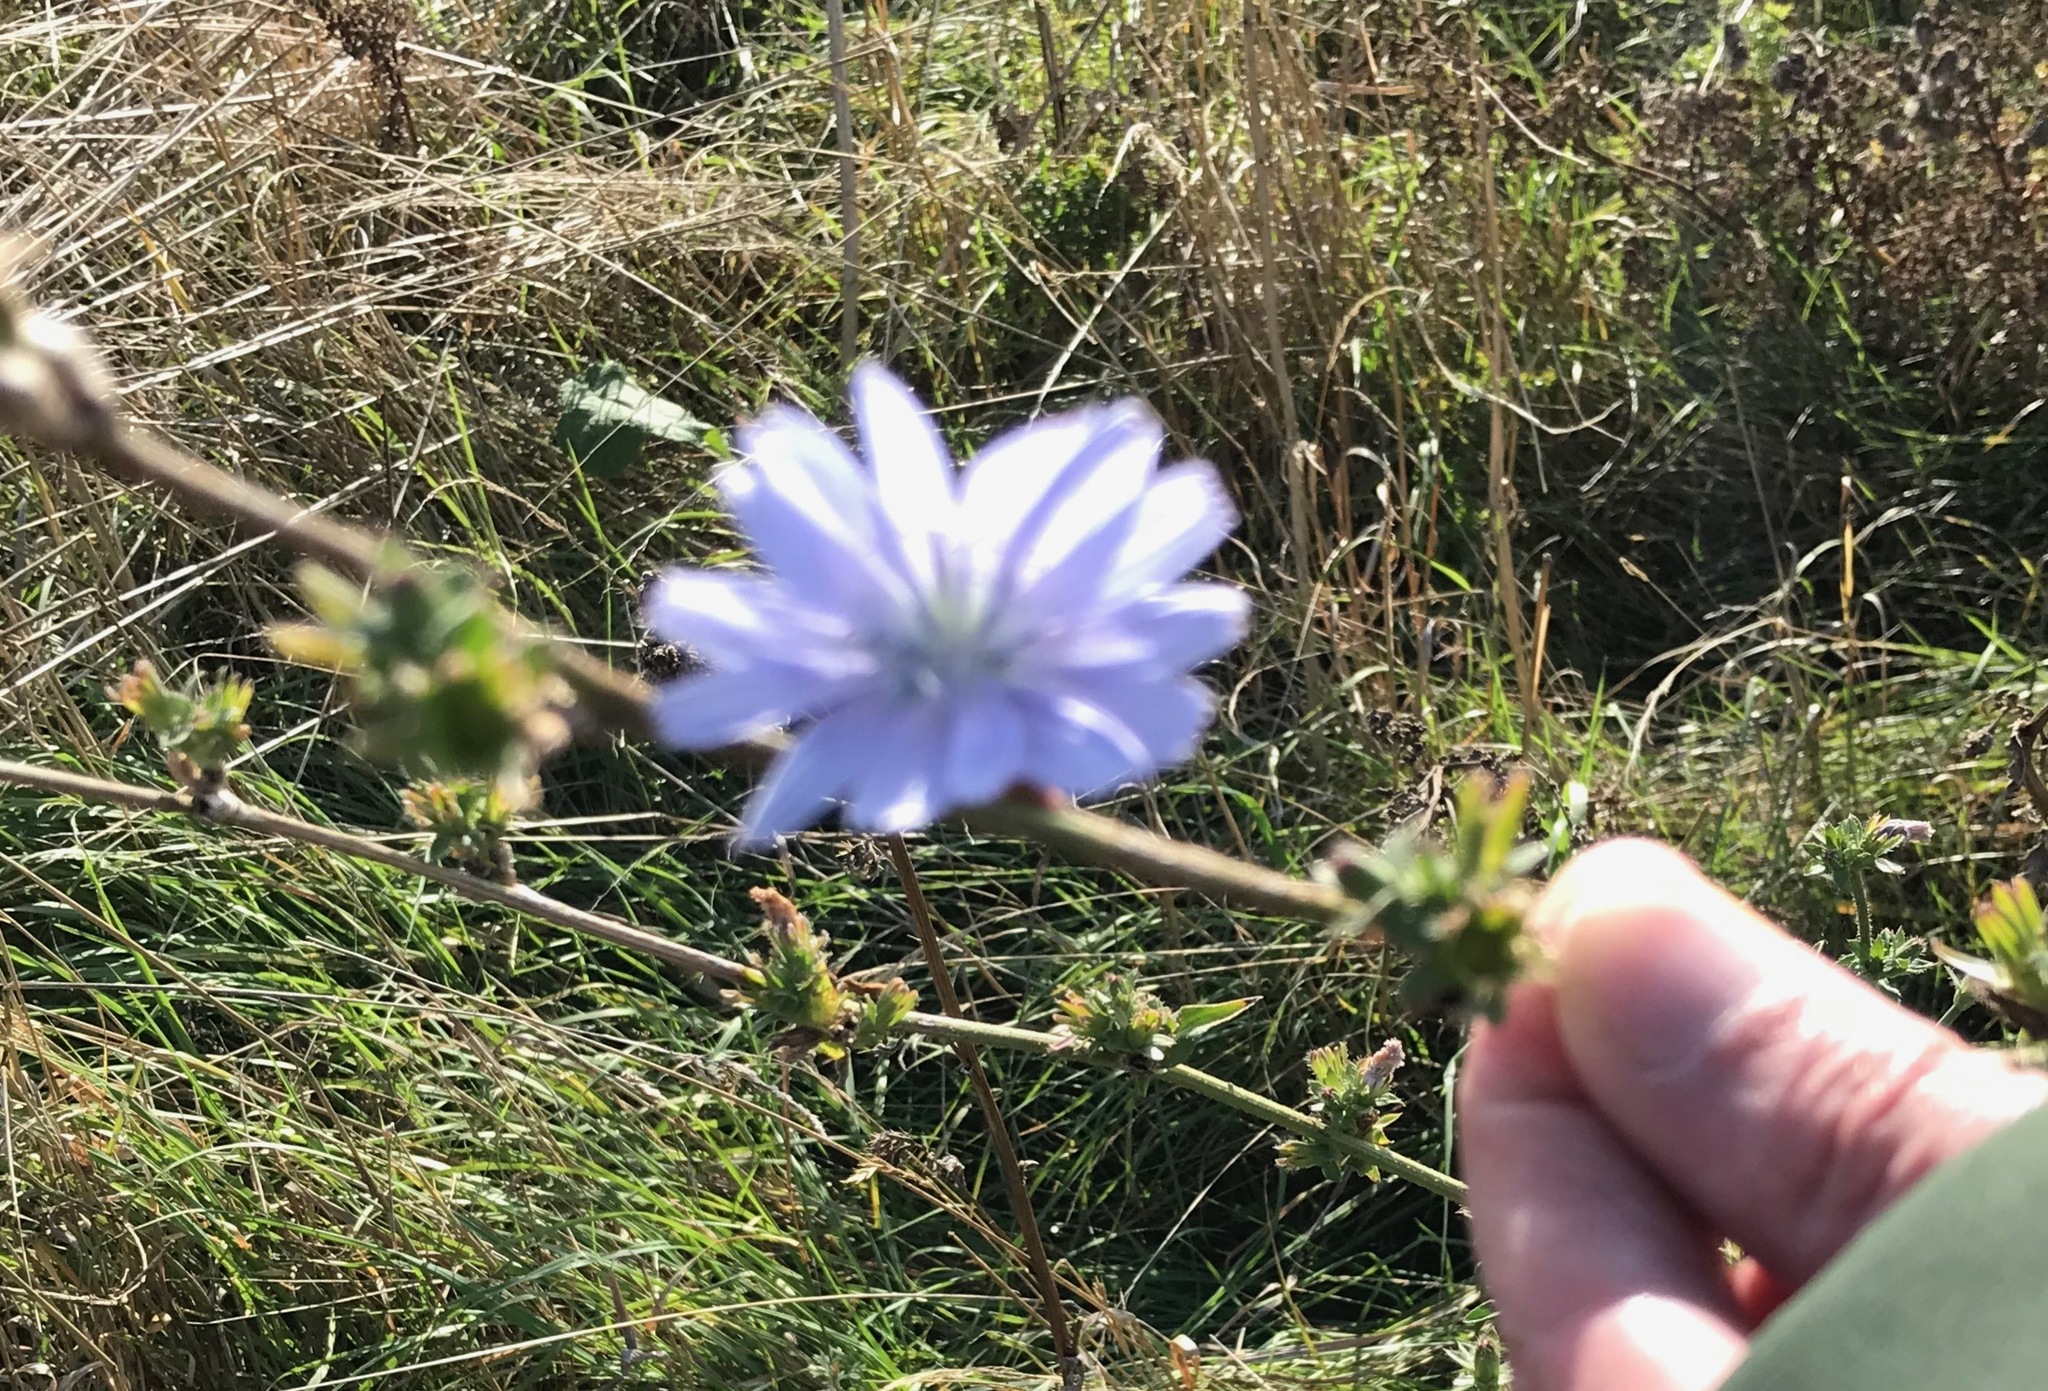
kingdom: Plantae
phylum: Tracheophyta
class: Magnoliopsida
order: Asterales
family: Asteraceae
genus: Cichorium
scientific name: Cichorium intybus
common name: Chicory
